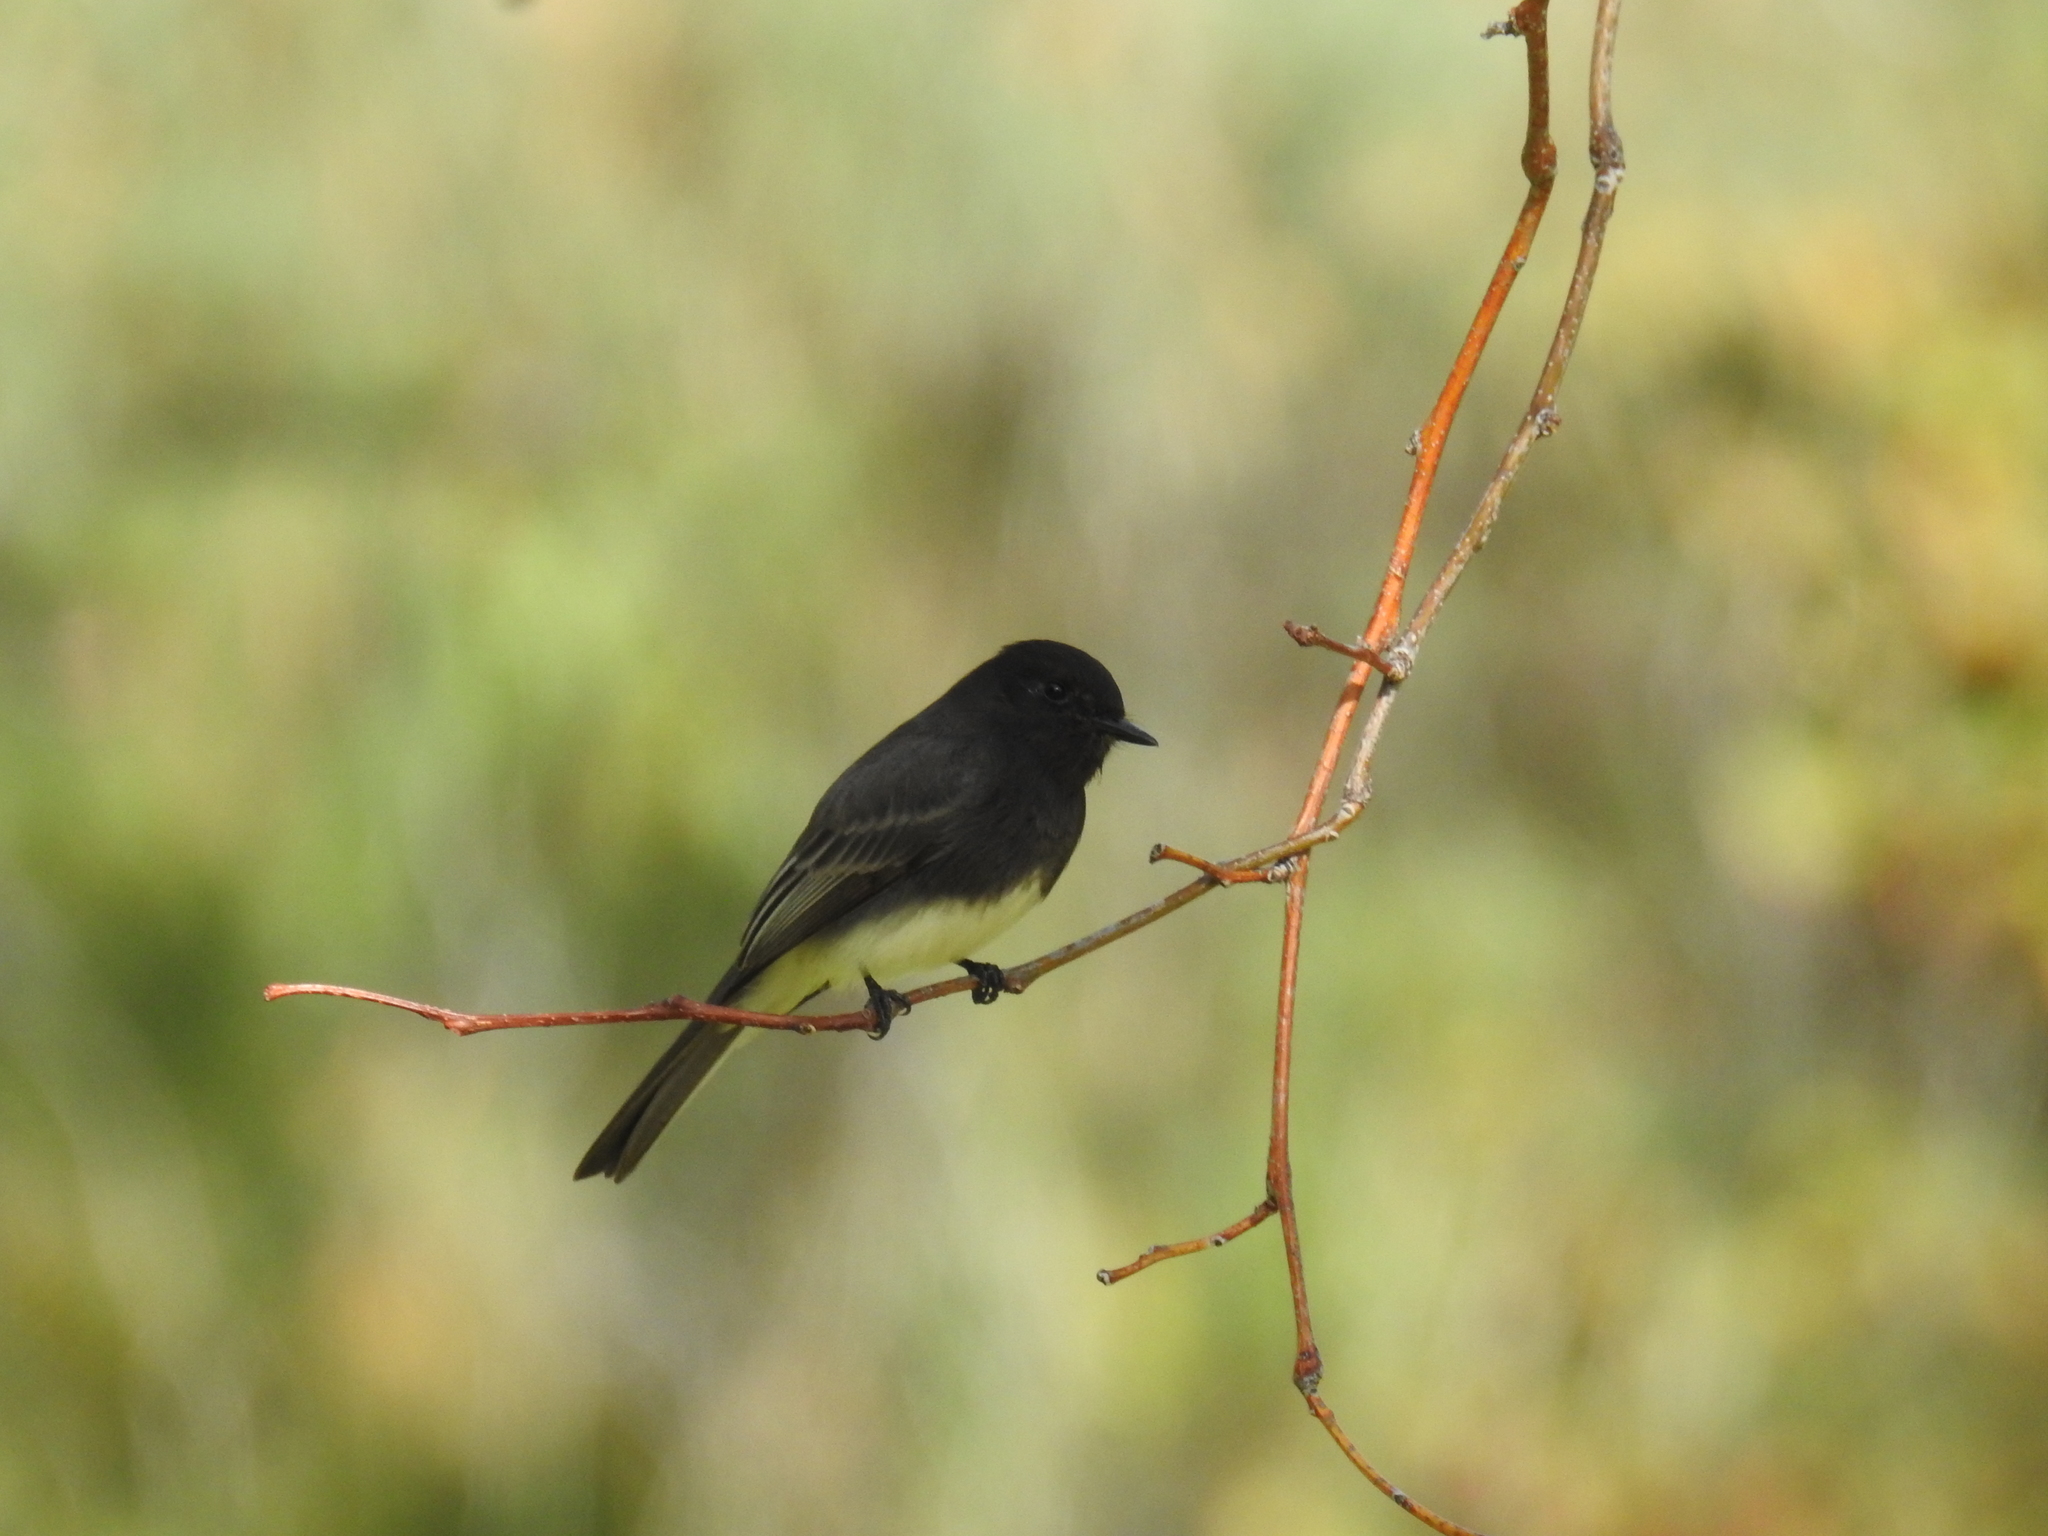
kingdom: Animalia
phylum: Chordata
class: Aves
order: Passeriformes
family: Tyrannidae
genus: Sayornis
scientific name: Sayornis nigricans
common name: Black phoebe
